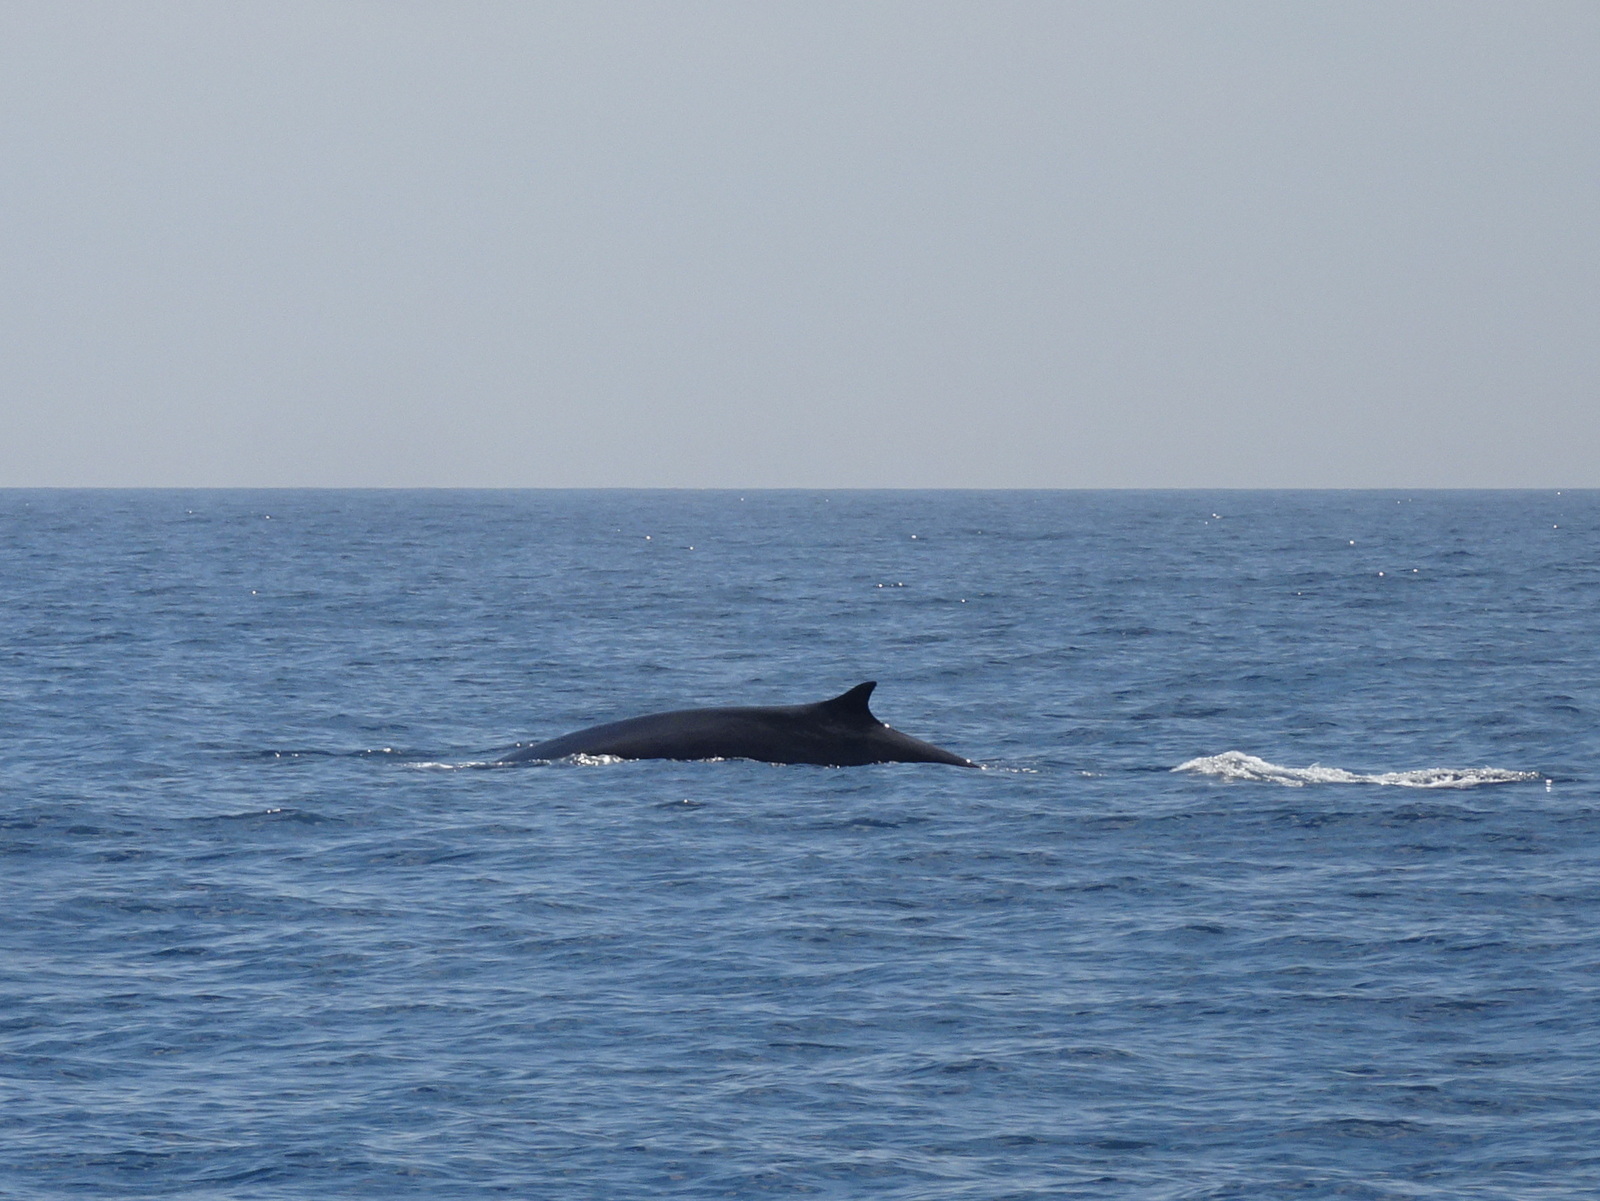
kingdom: Animalia
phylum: Chordata
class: Mammalia
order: Cetacea
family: Balaenopteridae
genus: Balaenoptera
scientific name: Balaenoptera physalus
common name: Fin whale
